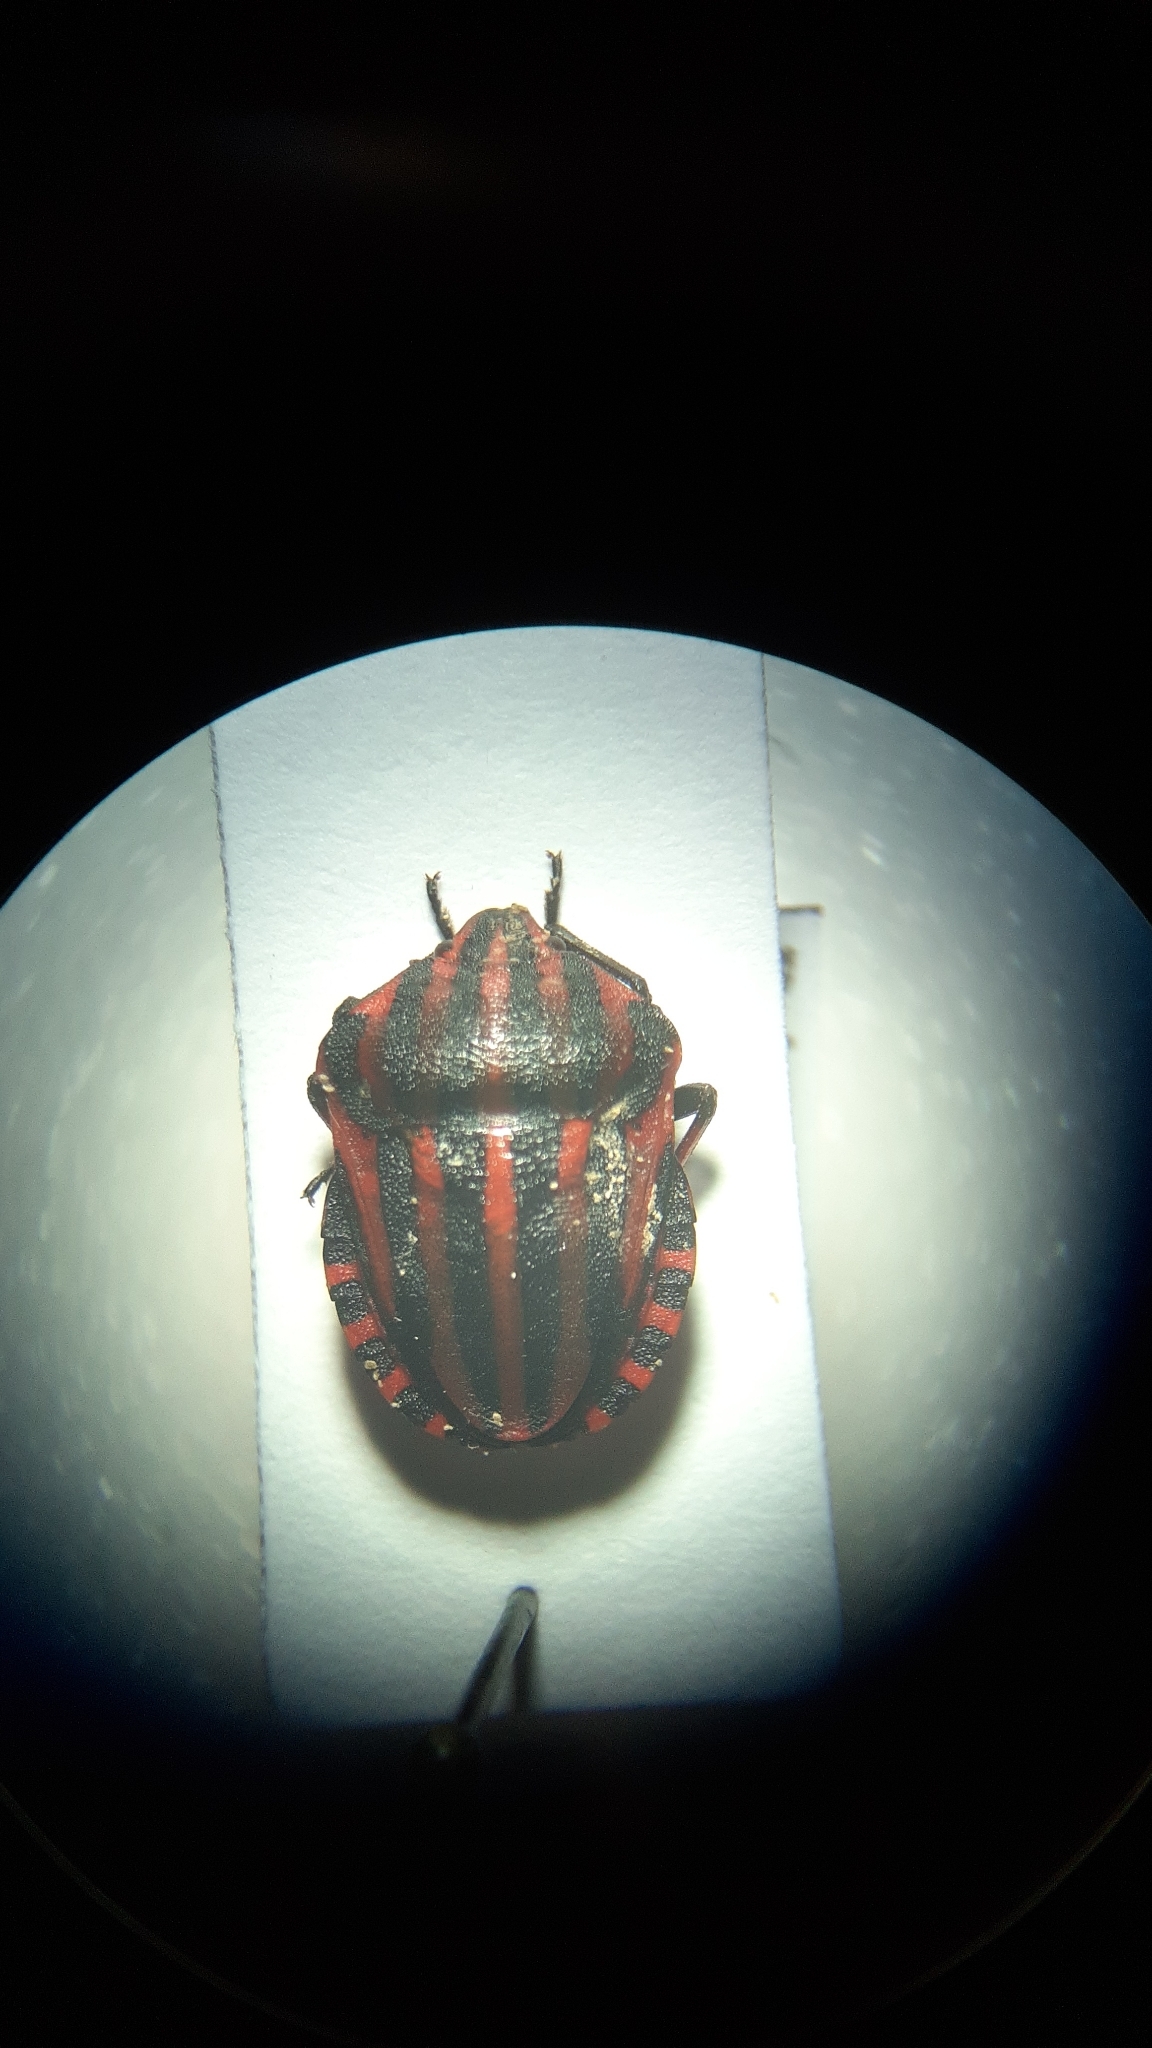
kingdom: Animalia
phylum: Arthropoda
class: Insecta
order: Hemiptera
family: Pentatomidae
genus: Graphosoma
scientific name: Graphosoma italicum
